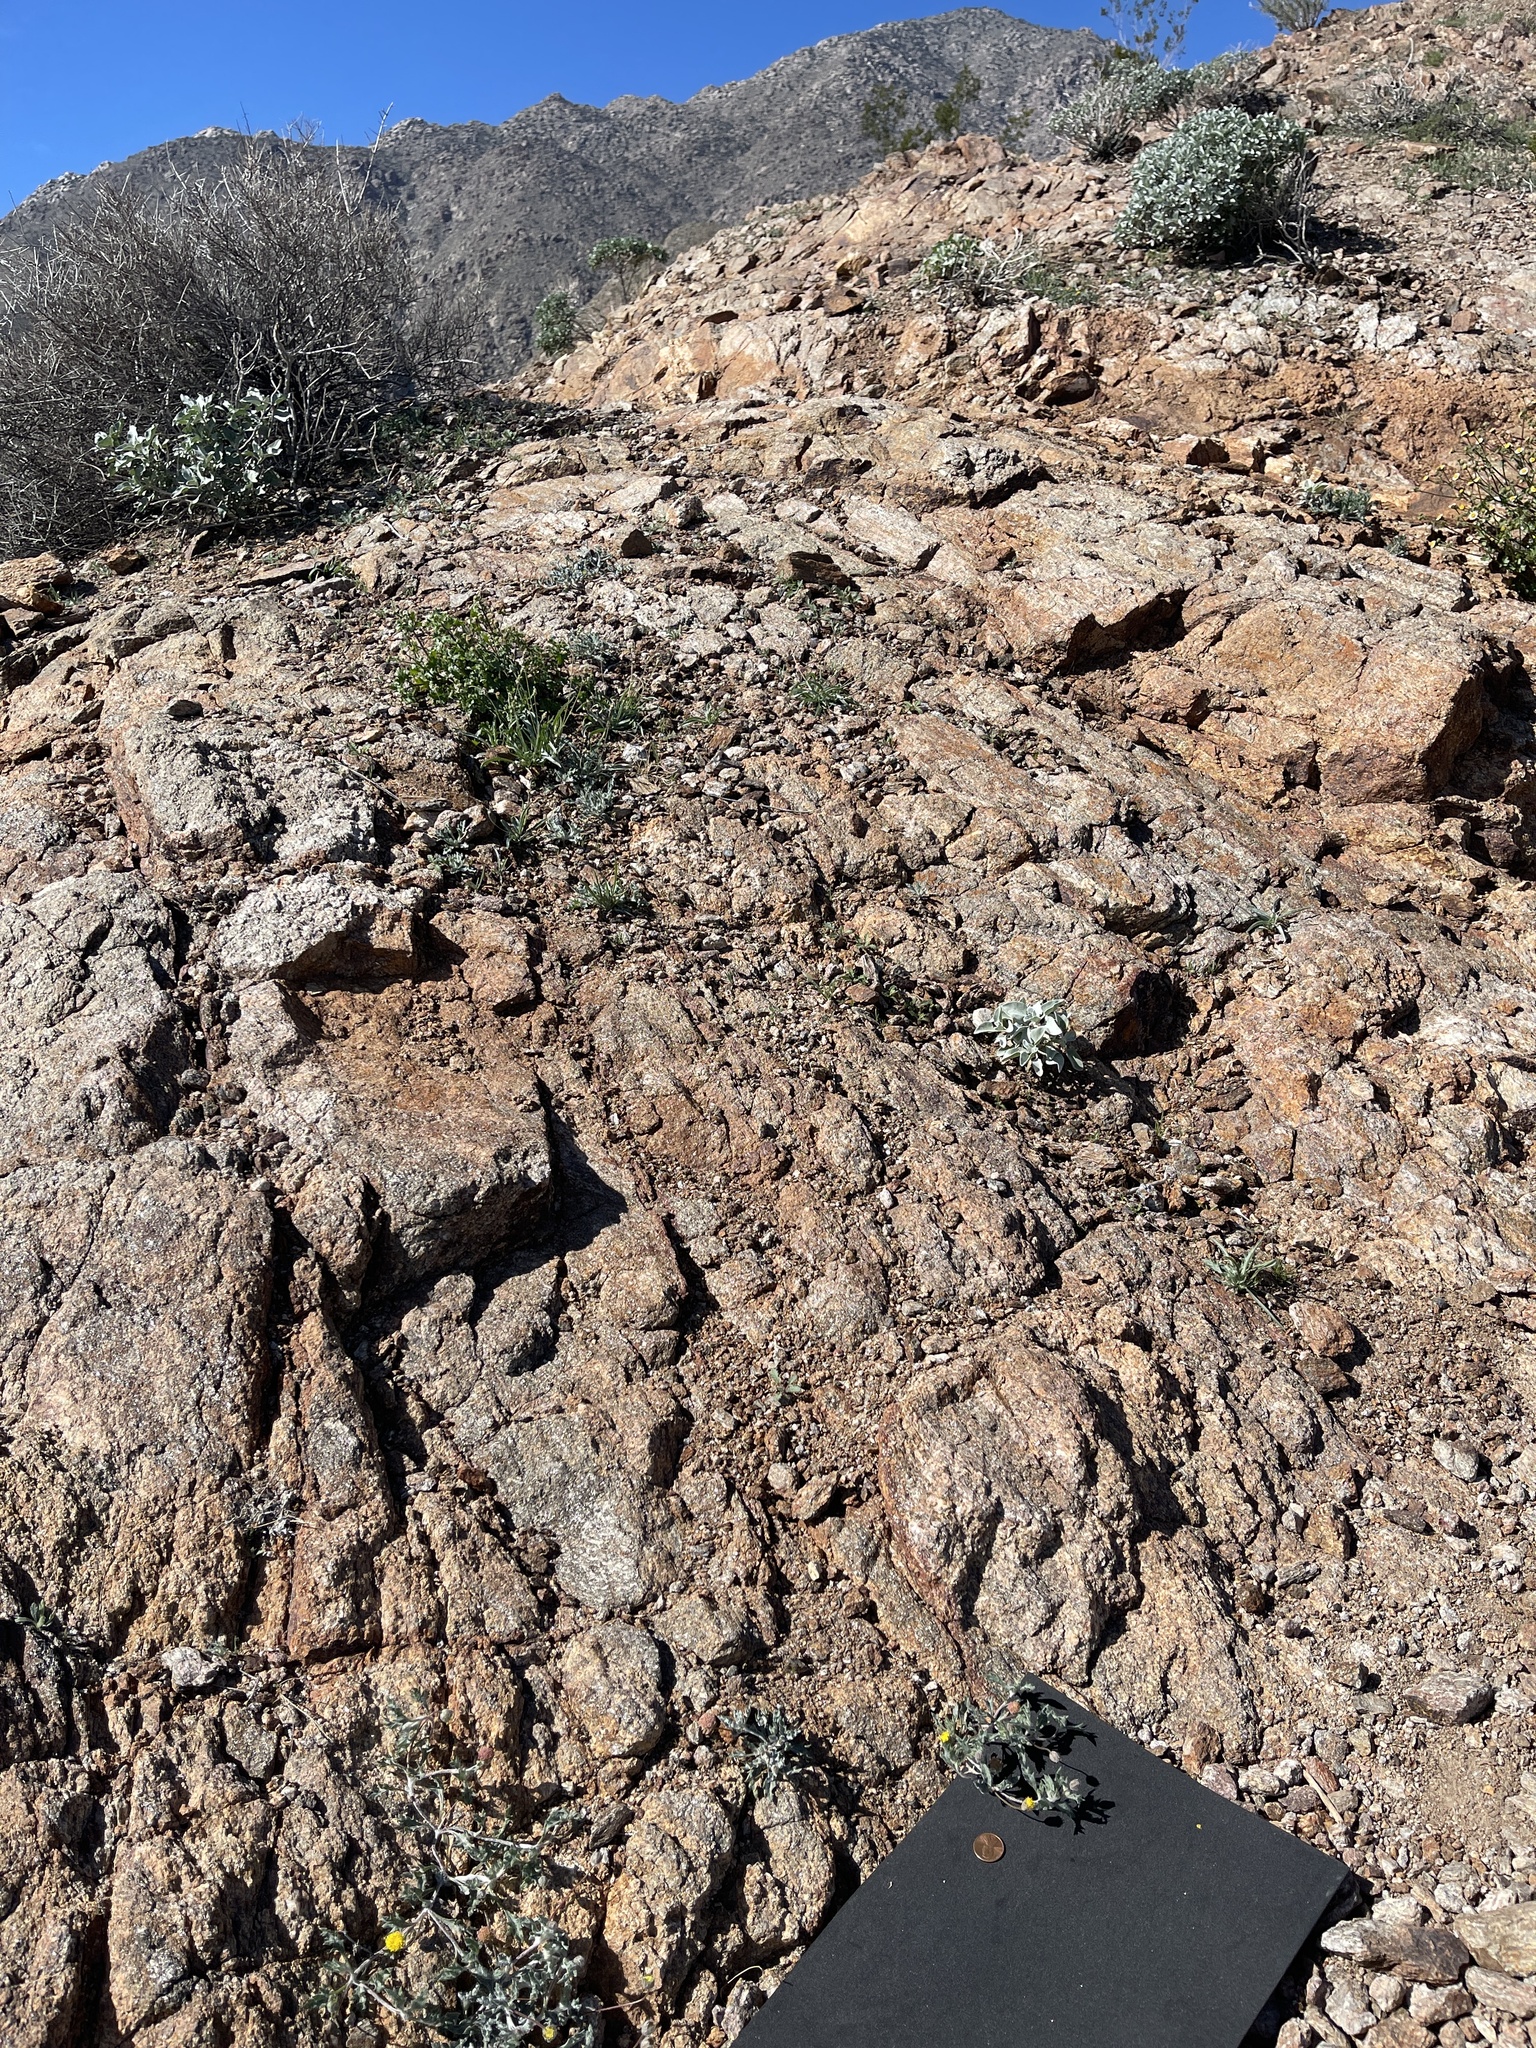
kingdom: Plantae
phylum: Tracheophyta
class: Magnoliopsida
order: Asterales
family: Asteraceae
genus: Trichoptilium
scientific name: Trichoptilium incisum
